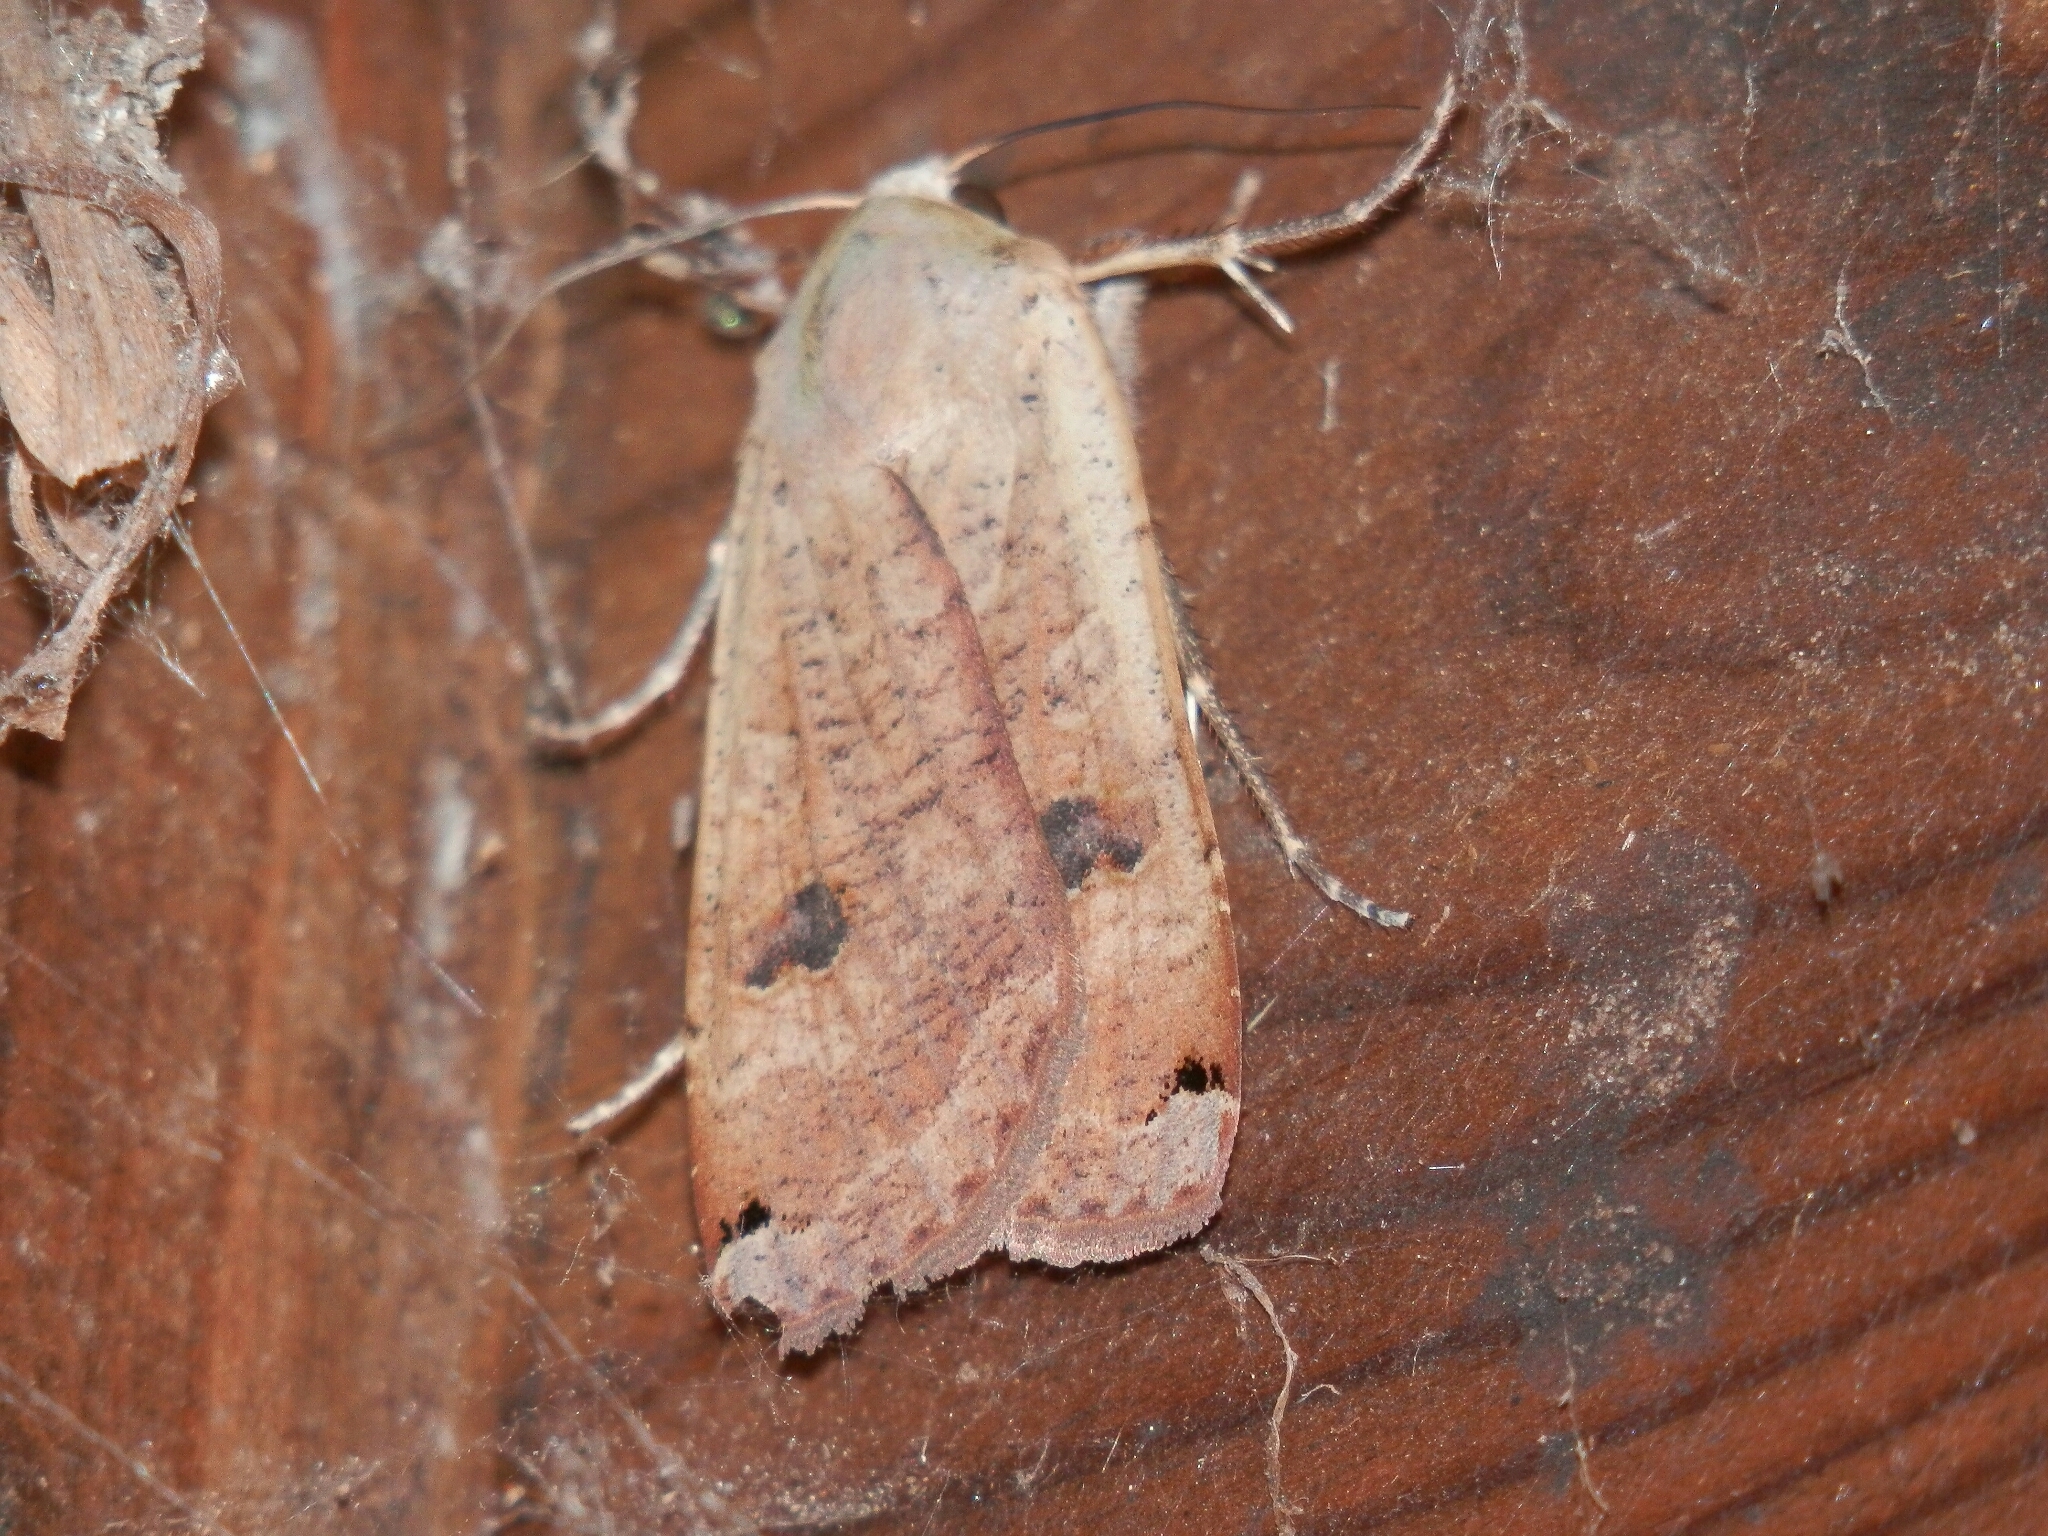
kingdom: Animalia
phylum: Arthropoda
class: Insecta
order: Lepidoptera
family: Noctuidae
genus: Noctua
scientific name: Noctua pronuba
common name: Large yellow underwing
